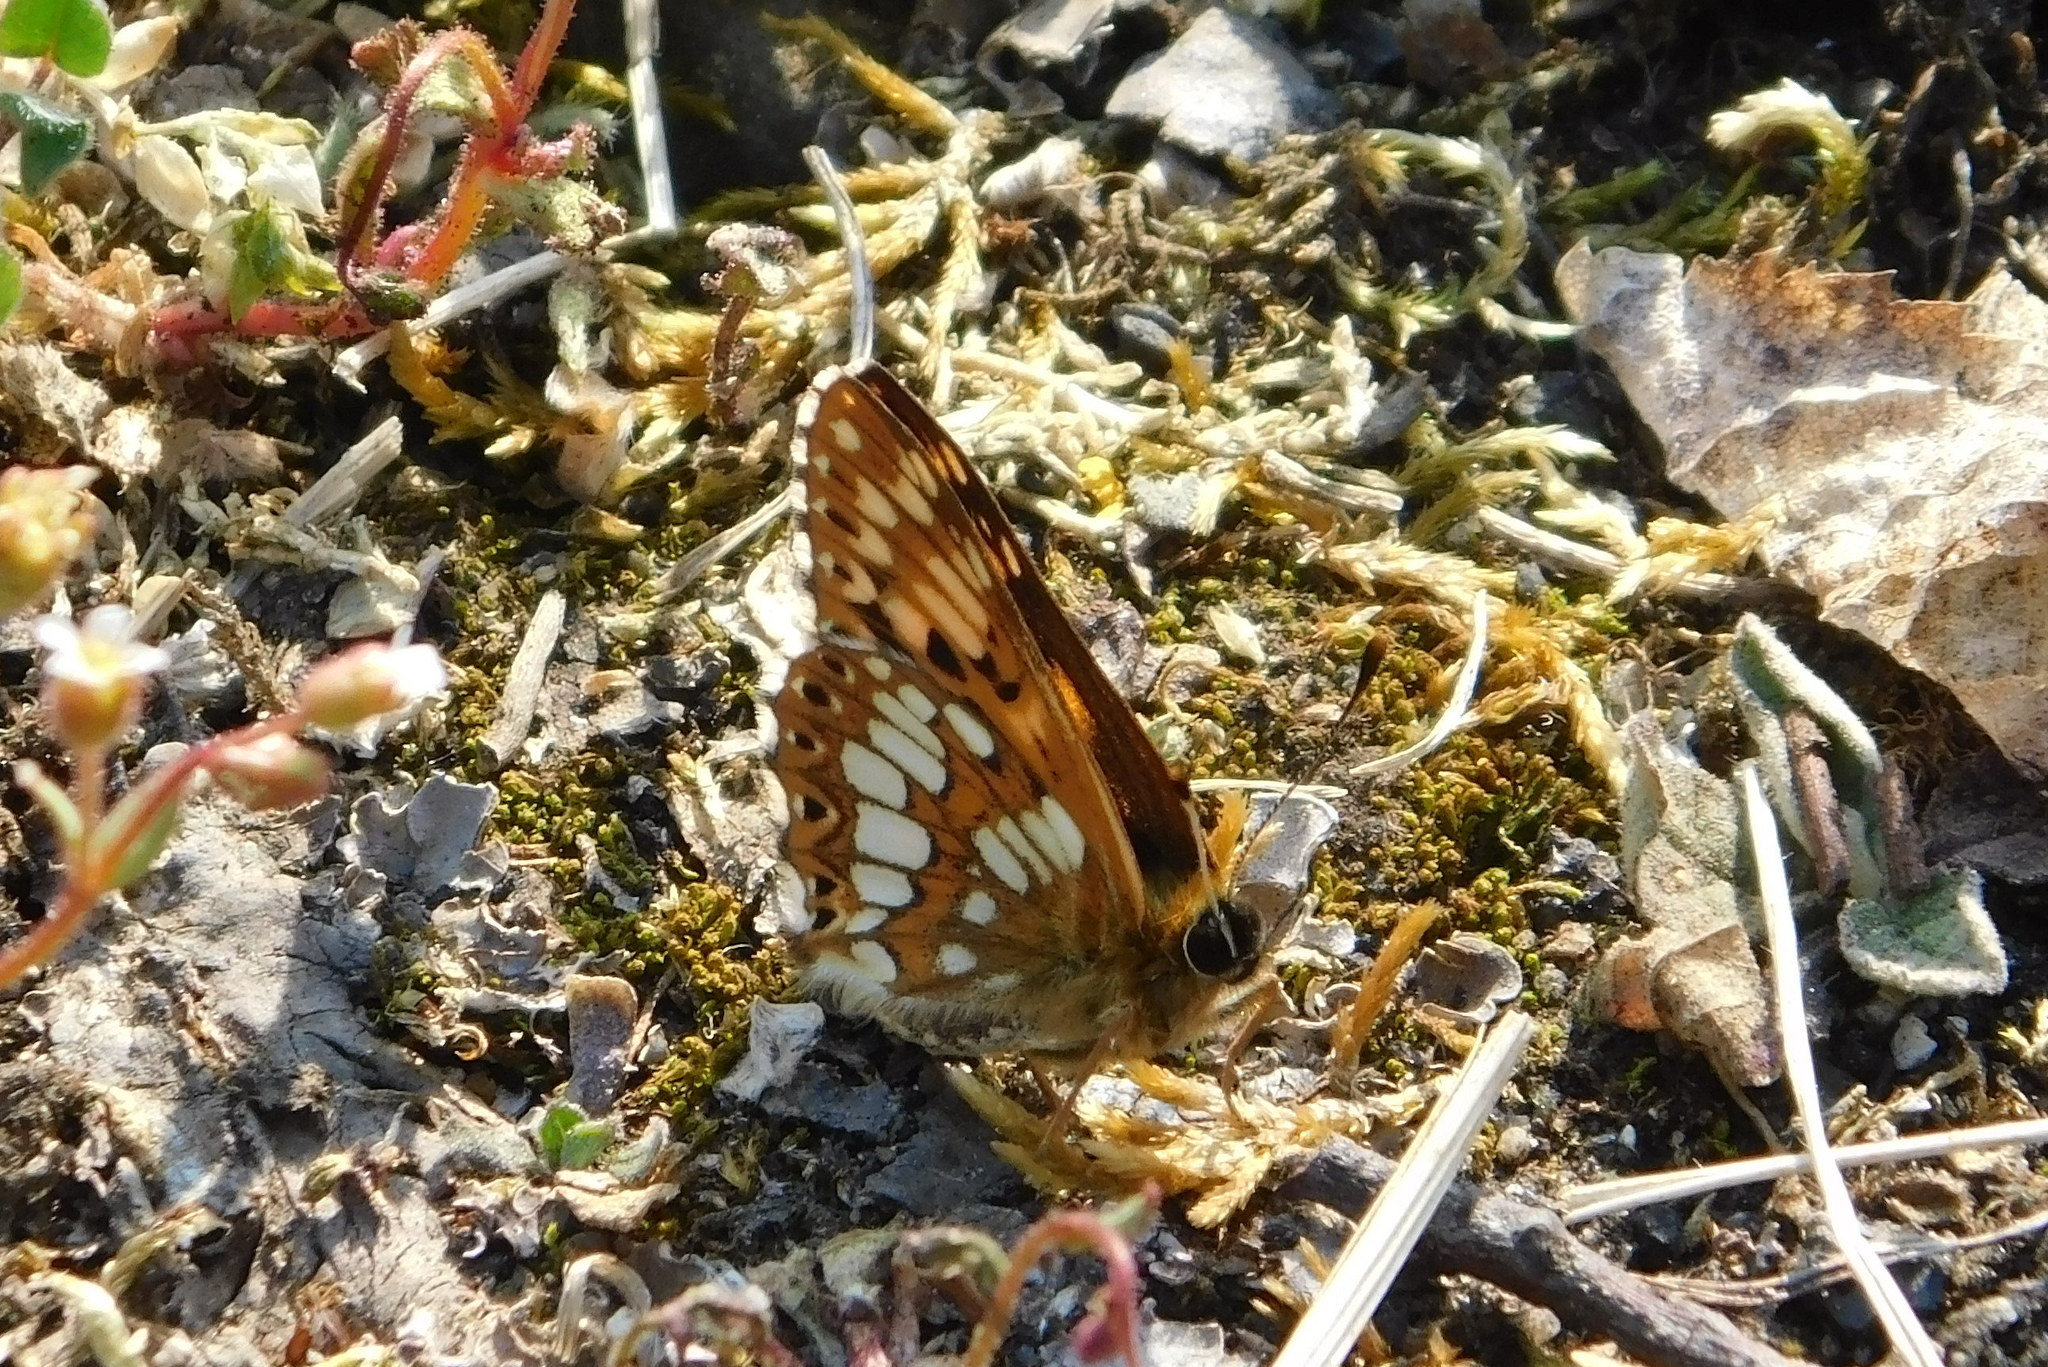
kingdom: Animalia
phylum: Arthropoda
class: Insecta
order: Lepidoptera
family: Riodinidae
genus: Hamearis
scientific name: Hamearis lucina
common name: Duke of burgundy fritillary
